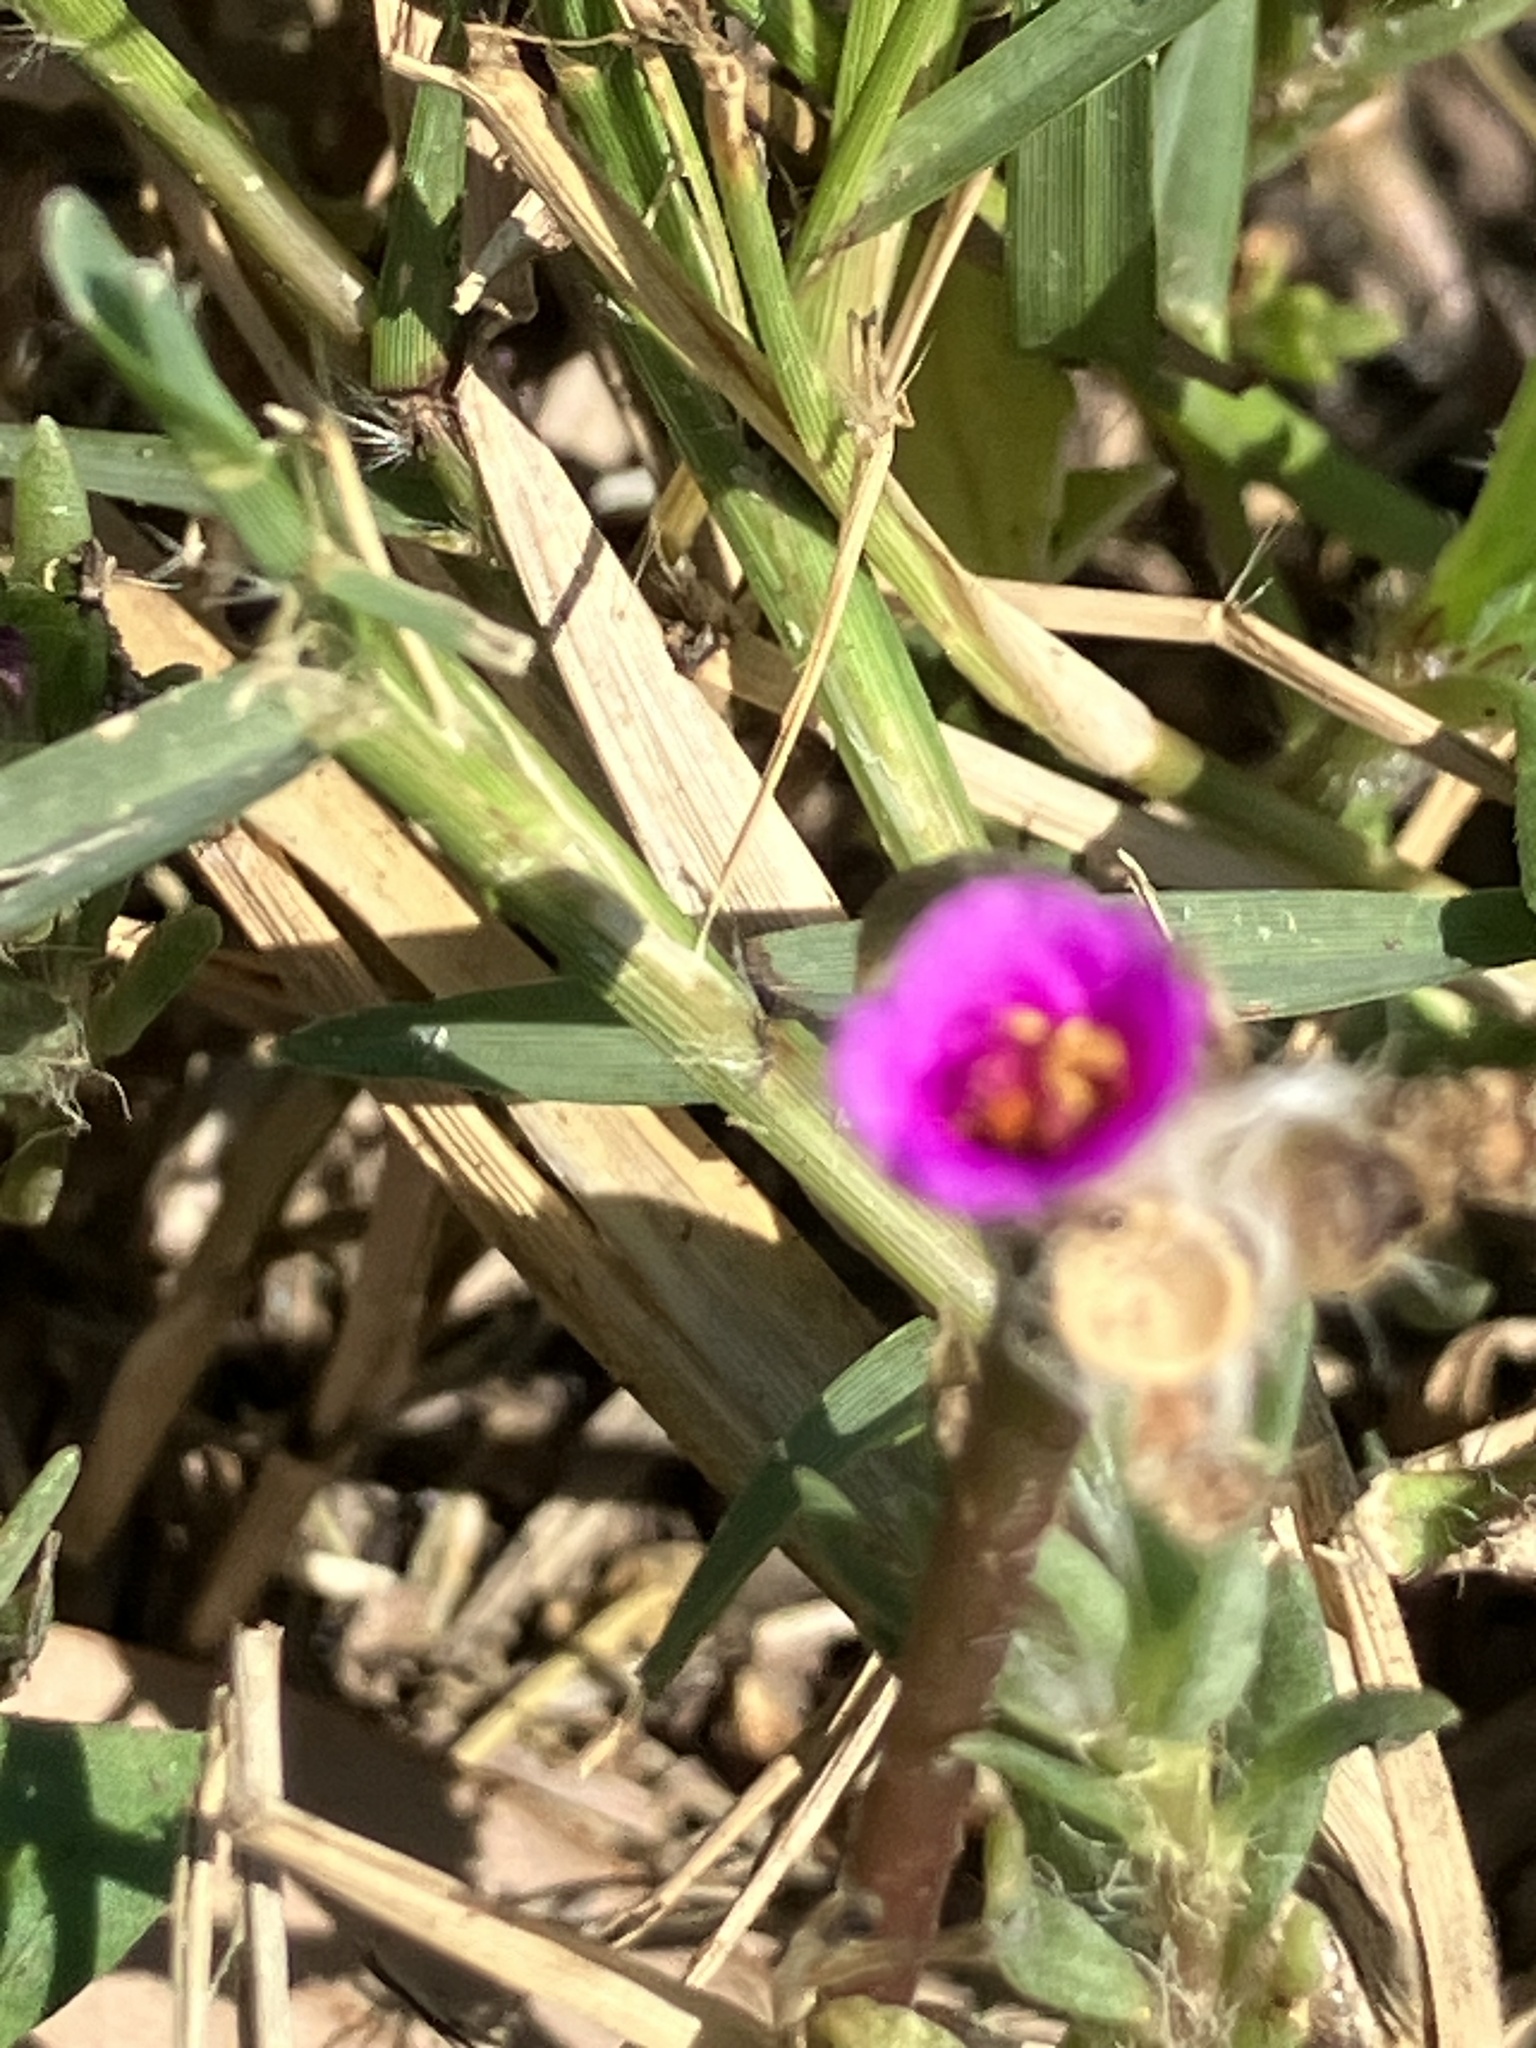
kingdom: Plantae
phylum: Tracheophyta
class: Magnoliopsida
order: Caryophyllales
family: Portulacaceae
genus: Portulaca
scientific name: Portulaca pilosa
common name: Kiss me quick
